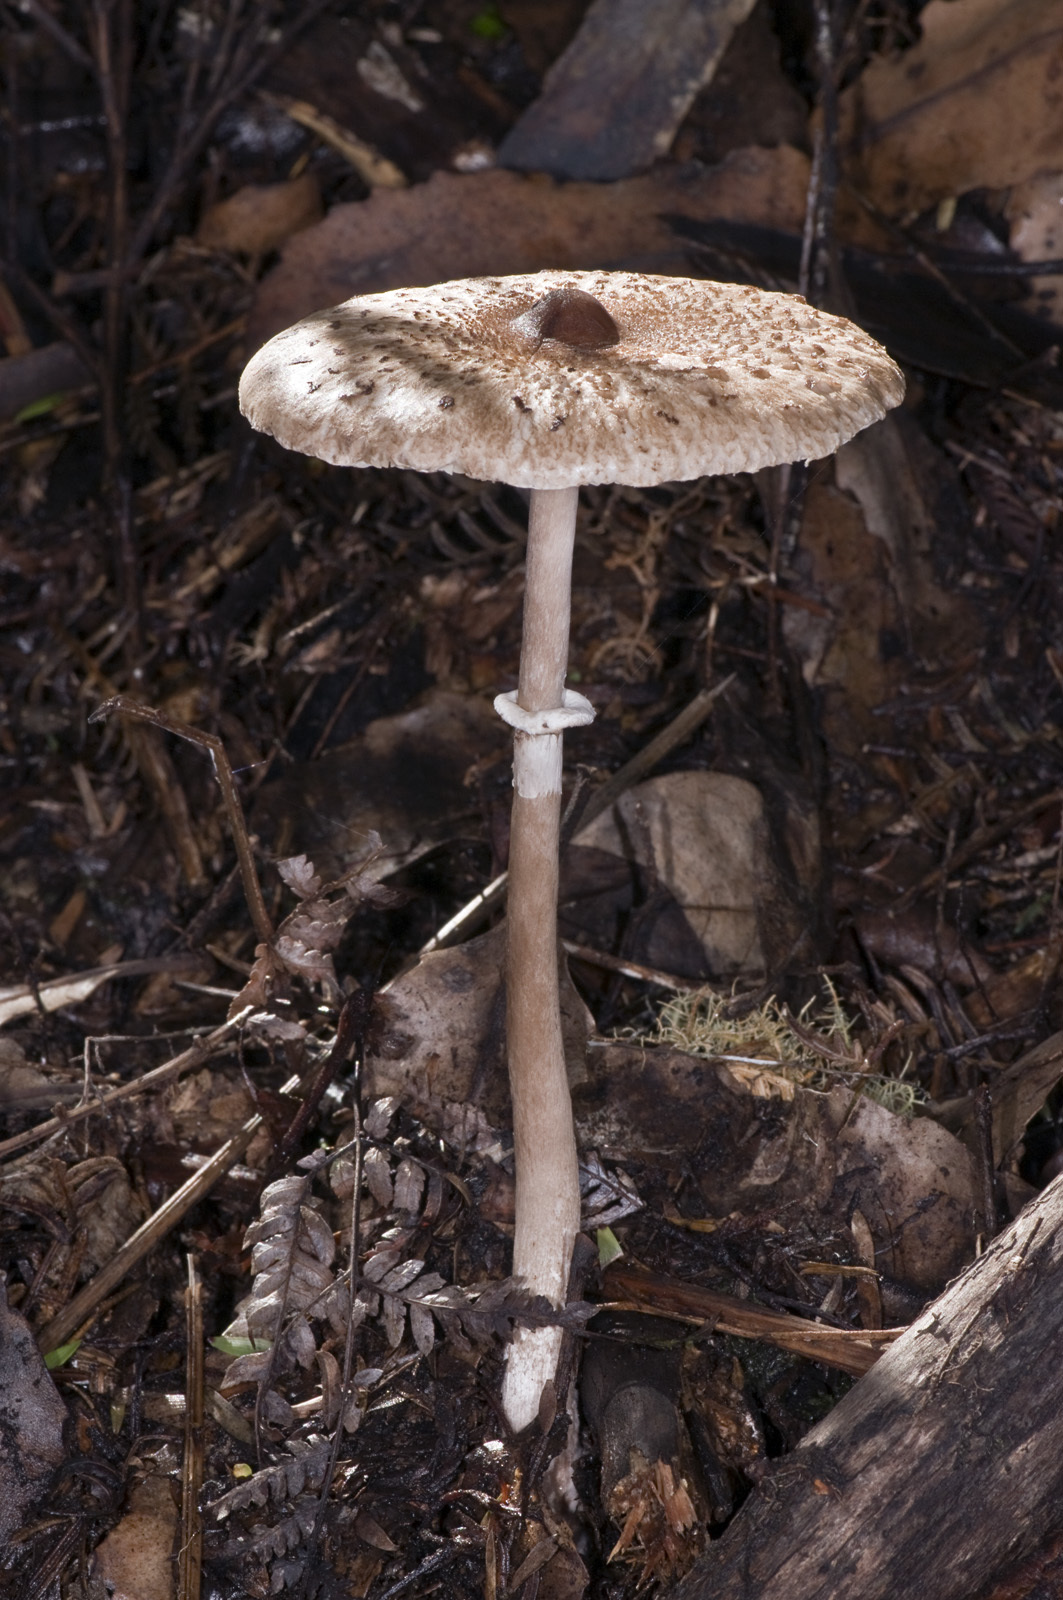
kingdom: Fungi
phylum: Basidiomycota
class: Agaricomycetes
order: Agaricales
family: Agaricaceae
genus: Macrolepiota
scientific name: Macrolepiota clelandii
